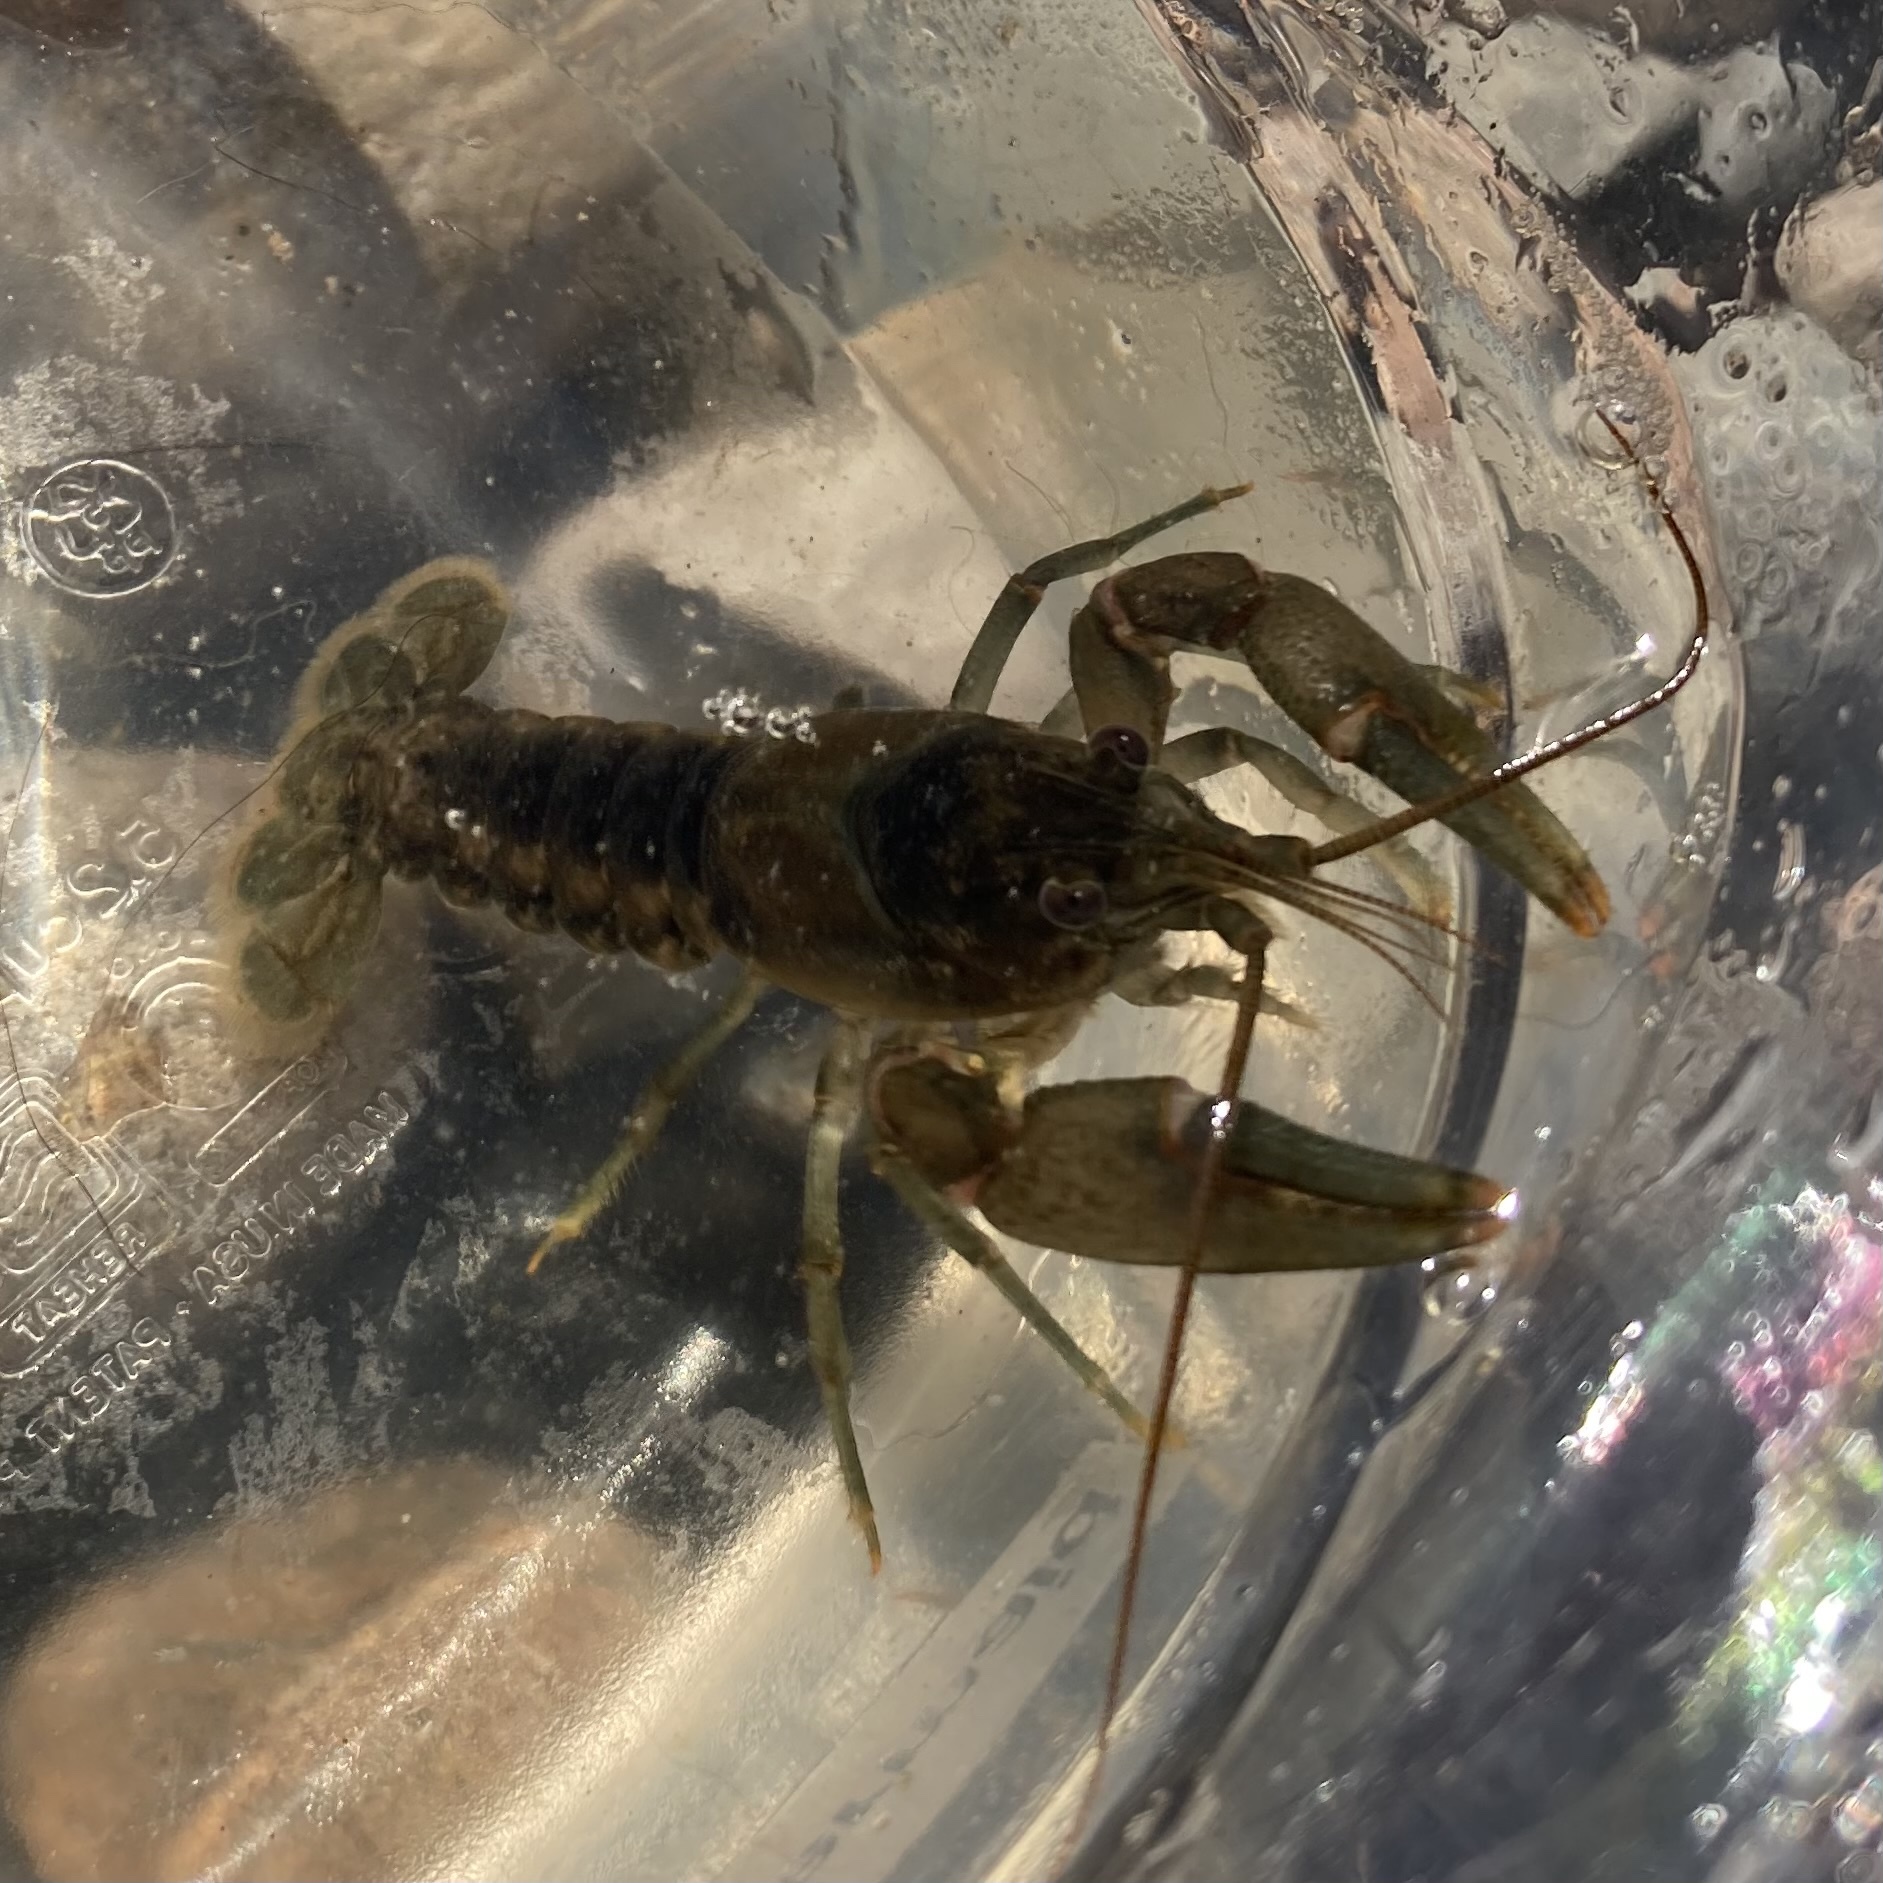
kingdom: Animalia
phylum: Arthropoda
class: Malacostraca
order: Decapoda
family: Cambaridae
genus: Faxonius
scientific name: Faxonius propinquus
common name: Northern clearwater crayfish
